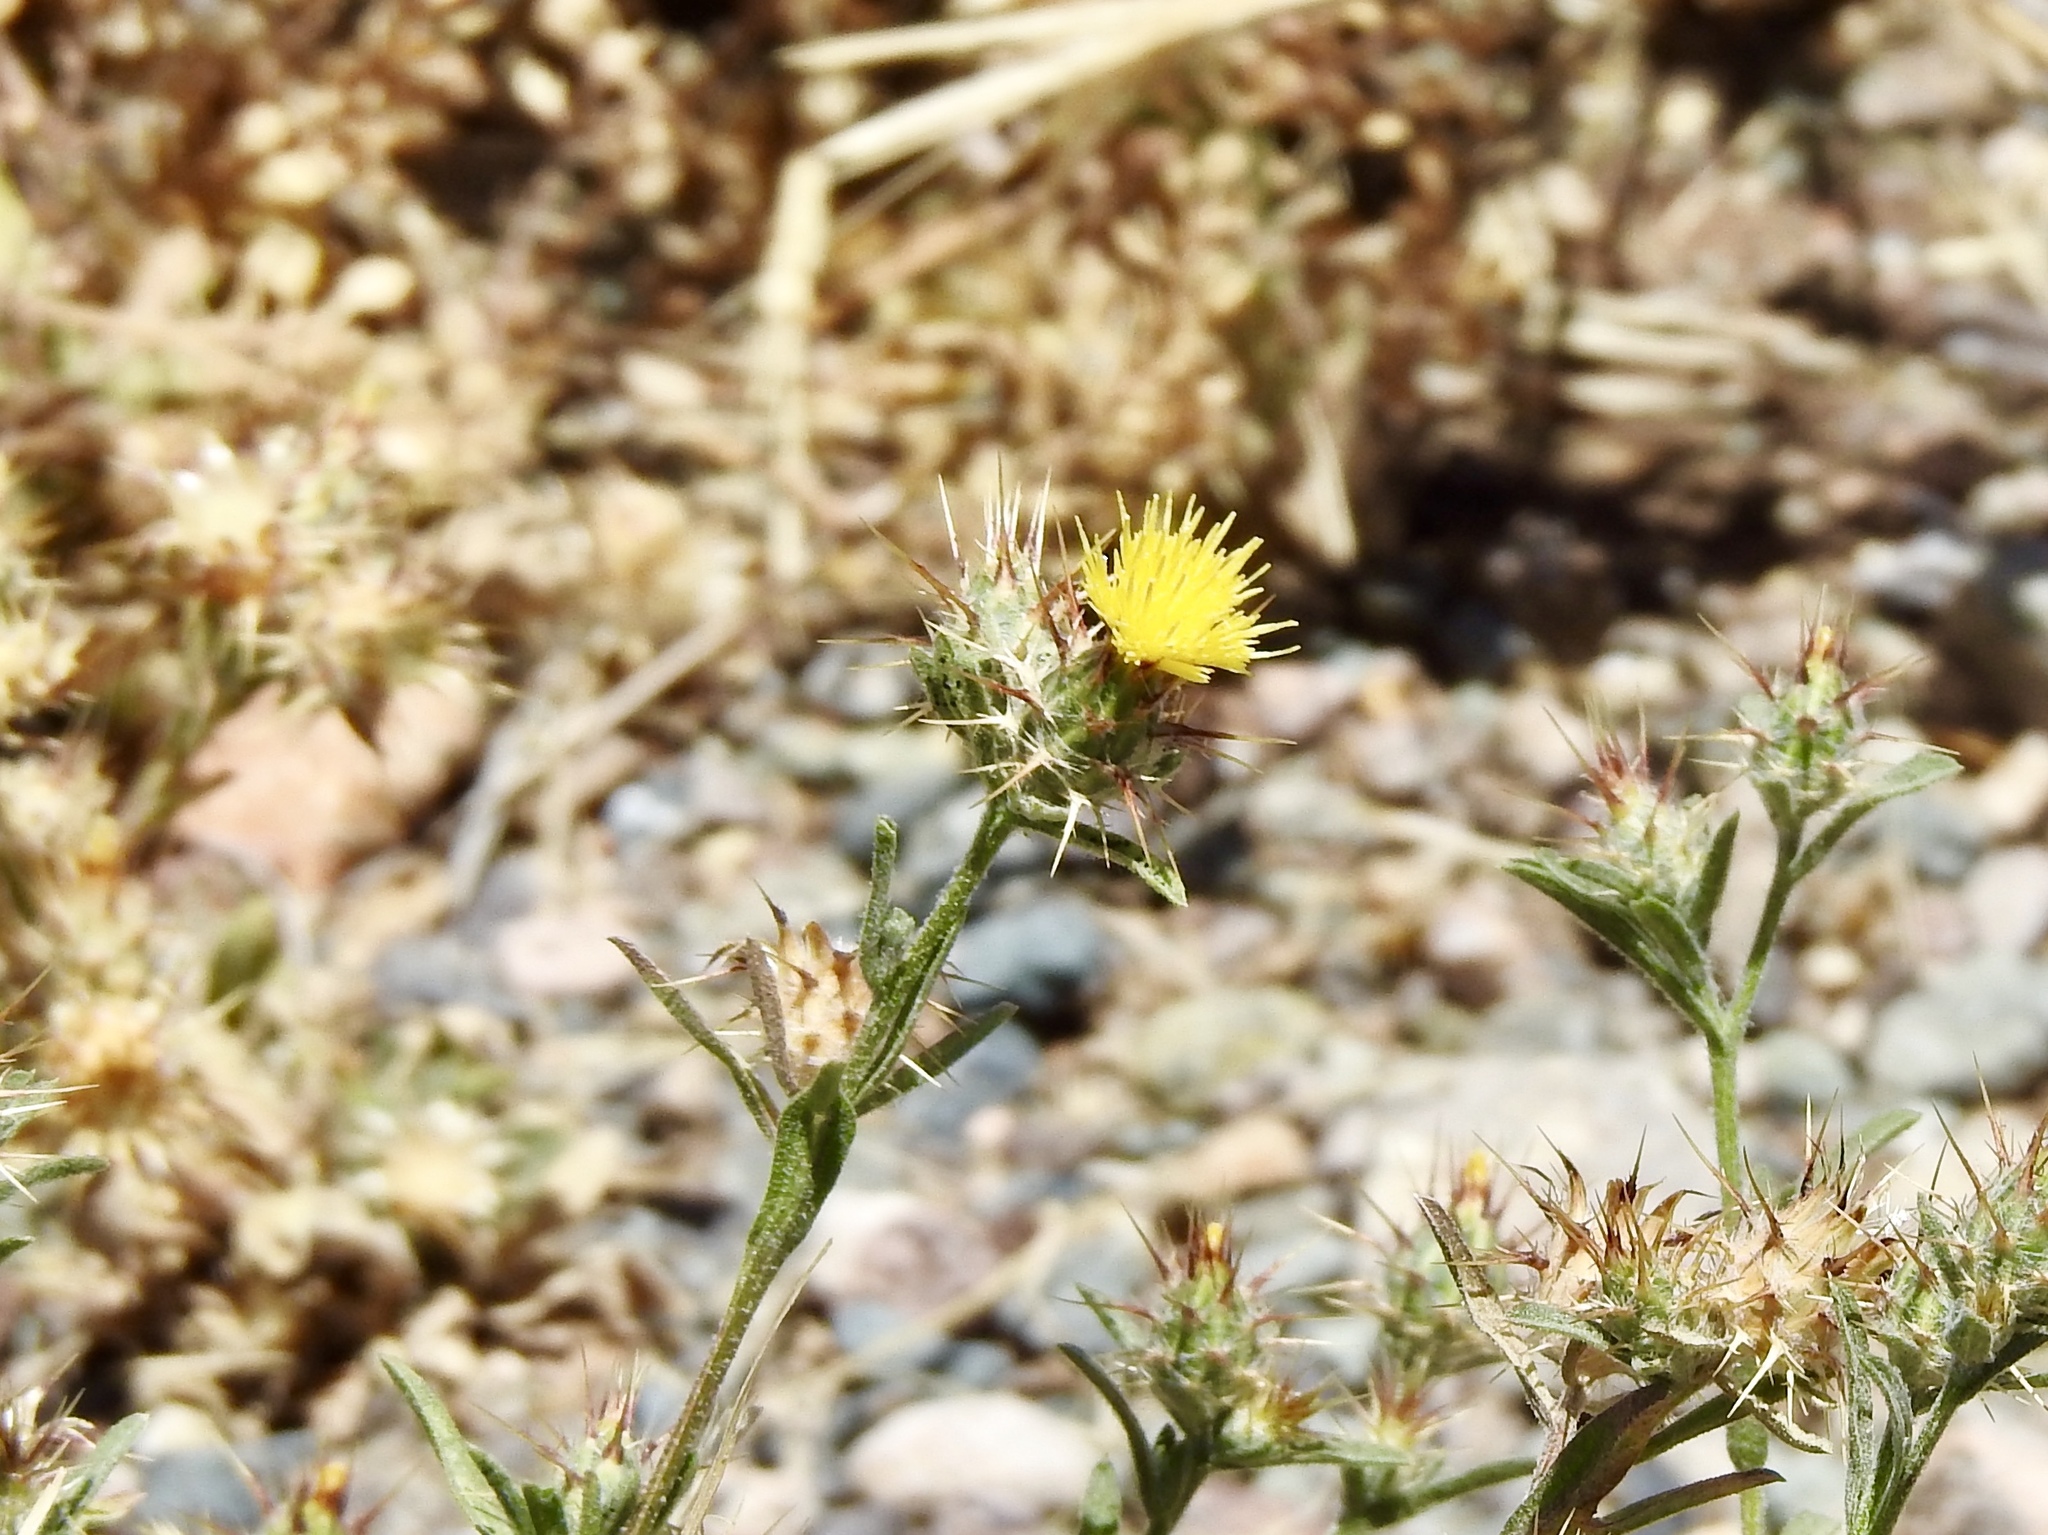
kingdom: Plantae
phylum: Tracheophyta
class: Magnoliopsida
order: Asterales
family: Asteraceae
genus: Centaurea
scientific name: Centaurea melitensis
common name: Maltese star-thistle
